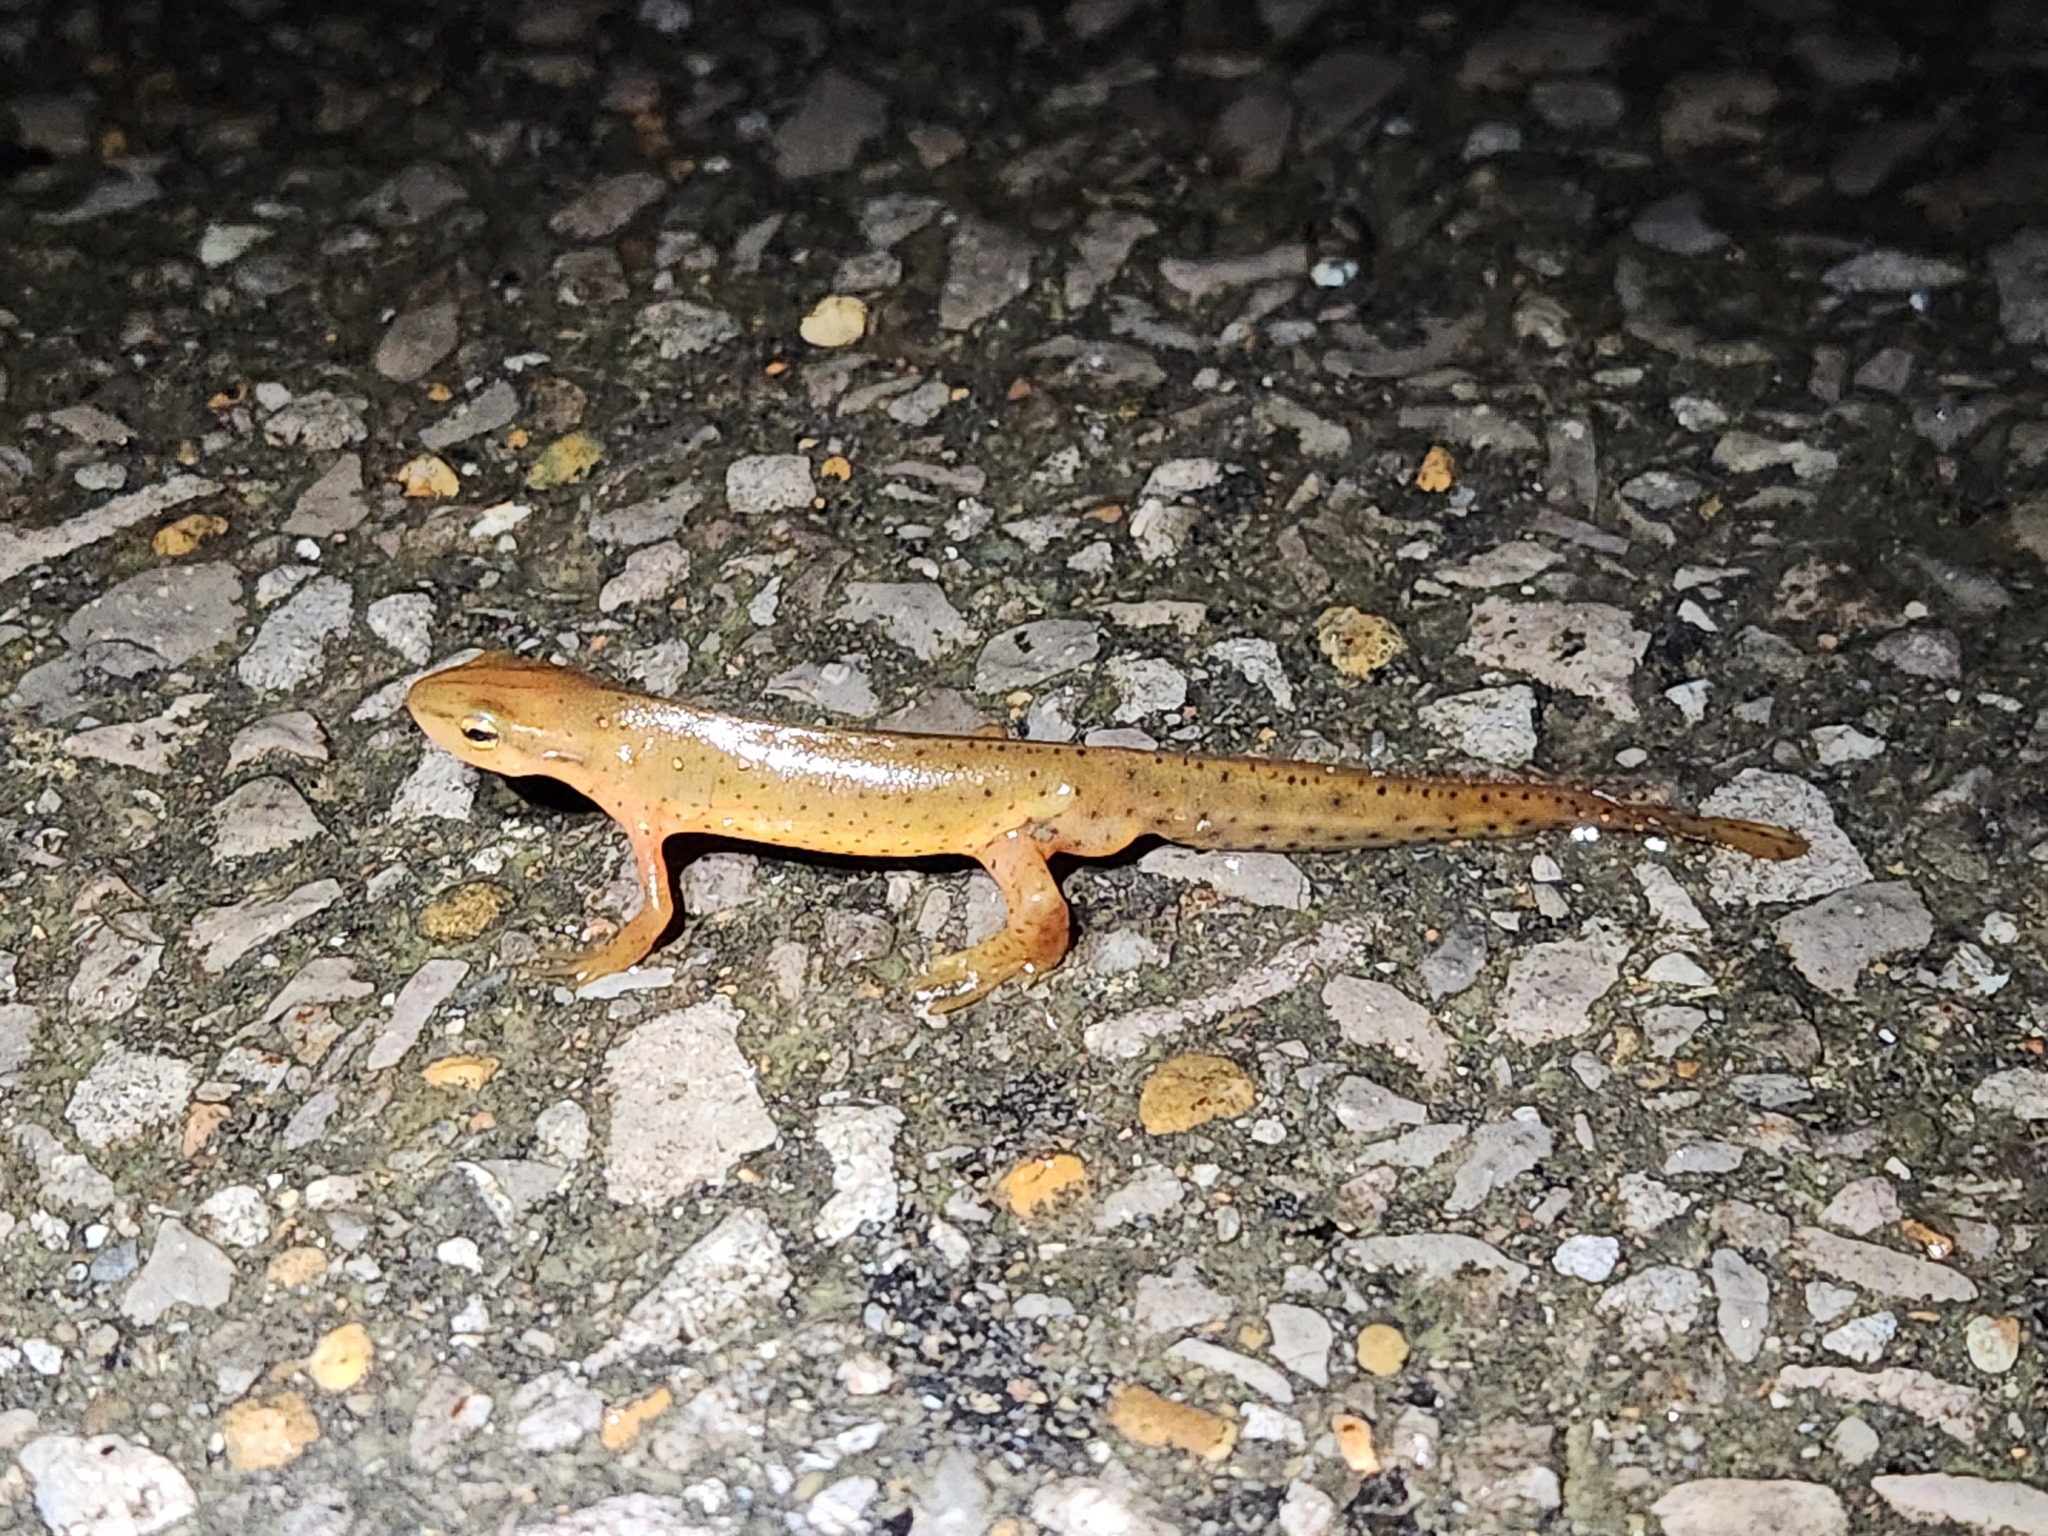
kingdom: Animalia
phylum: Chordata
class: Amphibia
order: Caudata
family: Salamandridae
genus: Notophthalmus
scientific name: Notophthalmus viridescens
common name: Eastern newt
